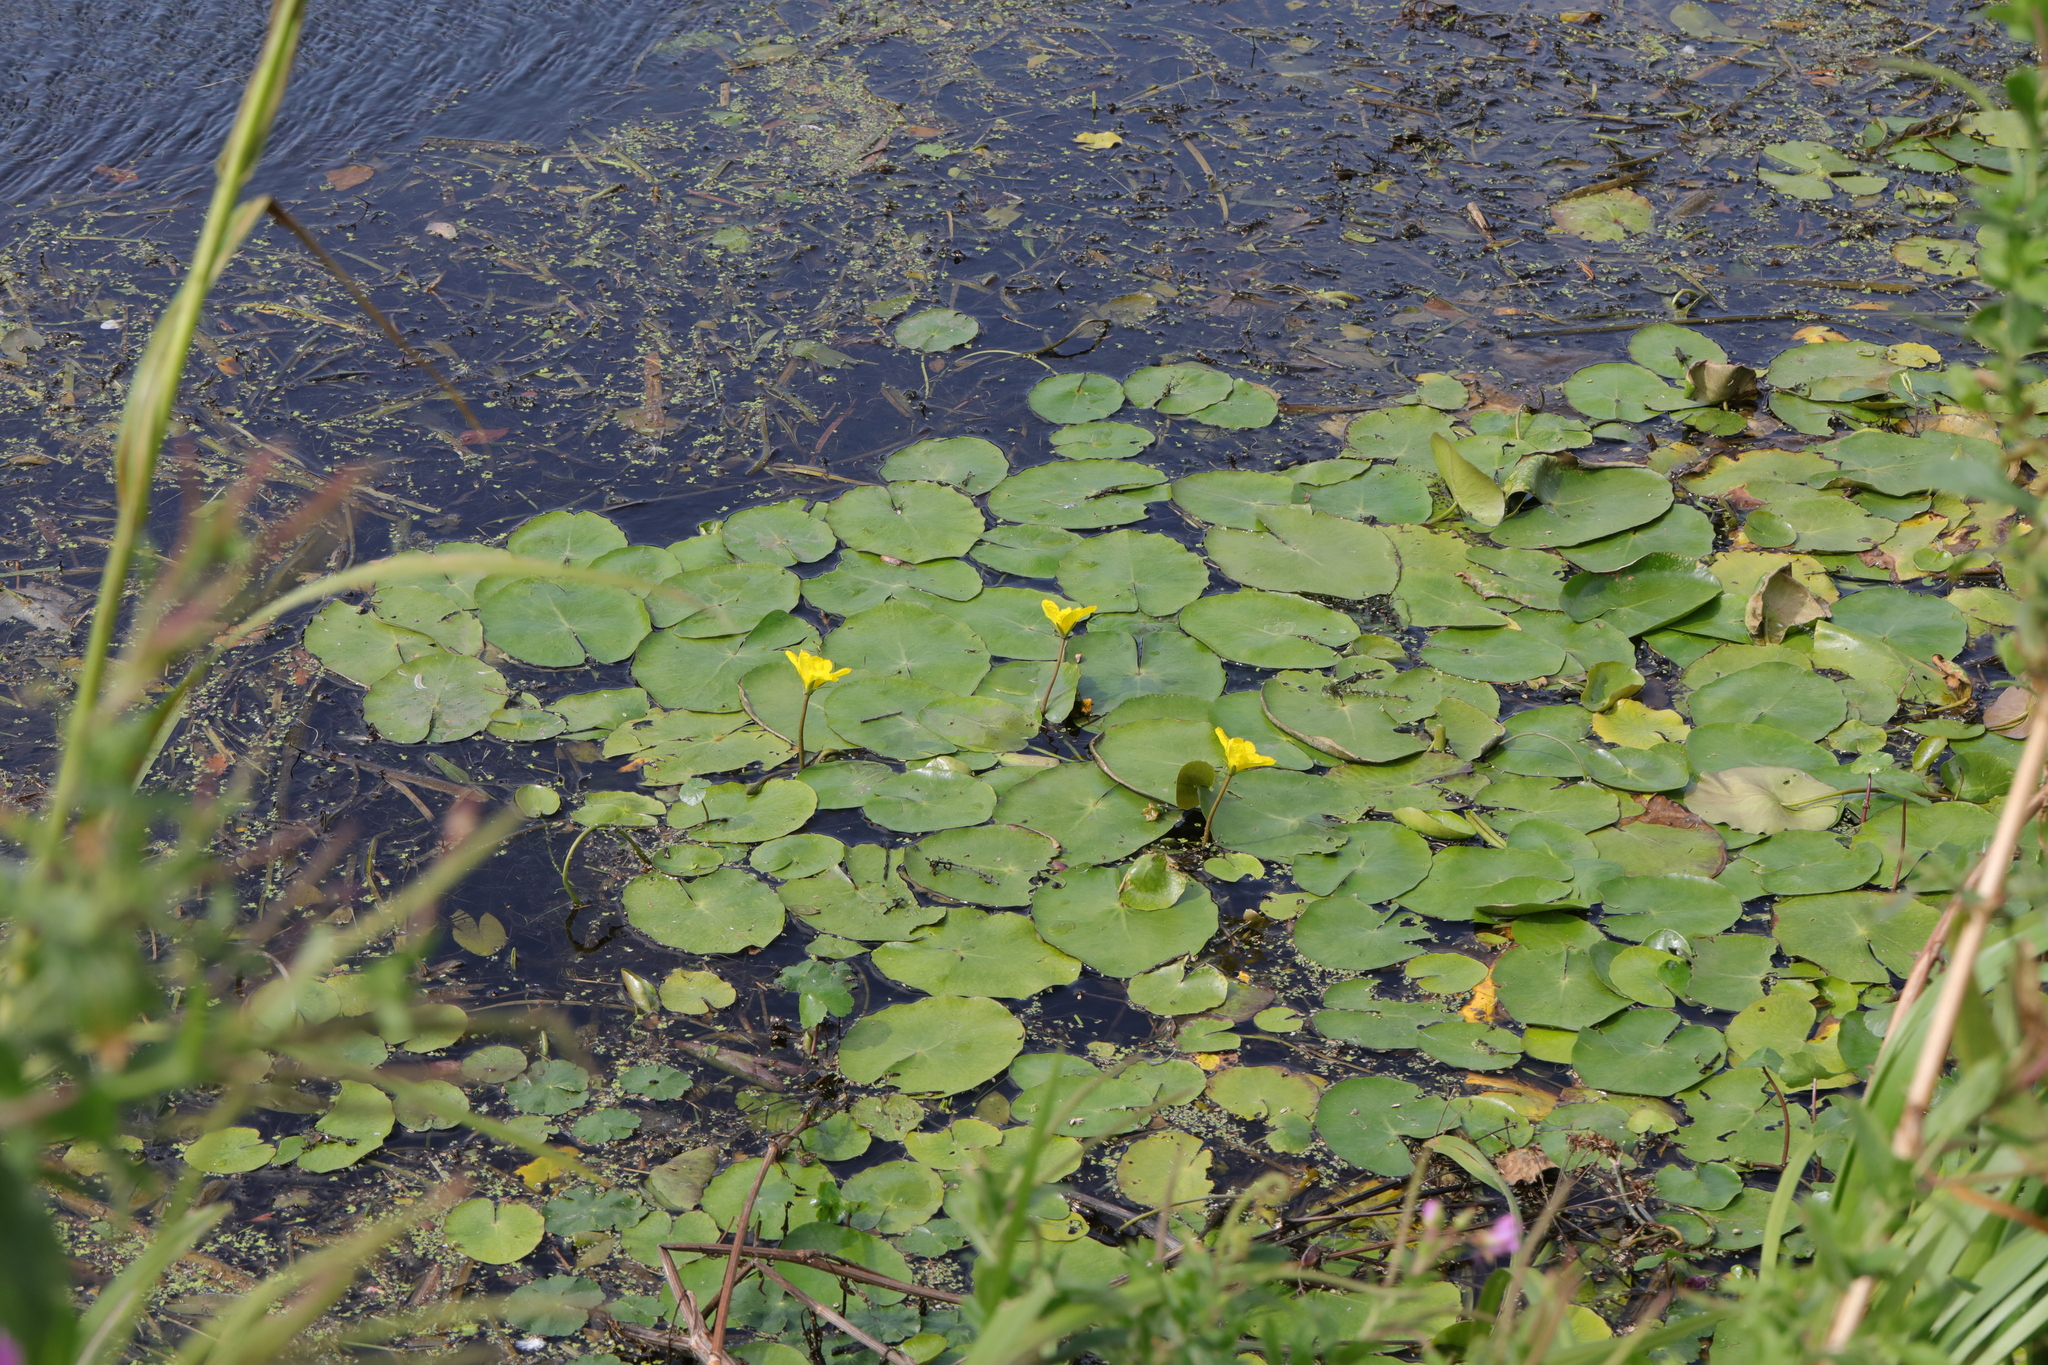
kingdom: Plantae
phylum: Tracheophyta
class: Magnoliopsida
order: Asterales
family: Menyanthaceae
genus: Nymphoides
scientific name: Nymphoides peltata
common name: Fringed water-lily
